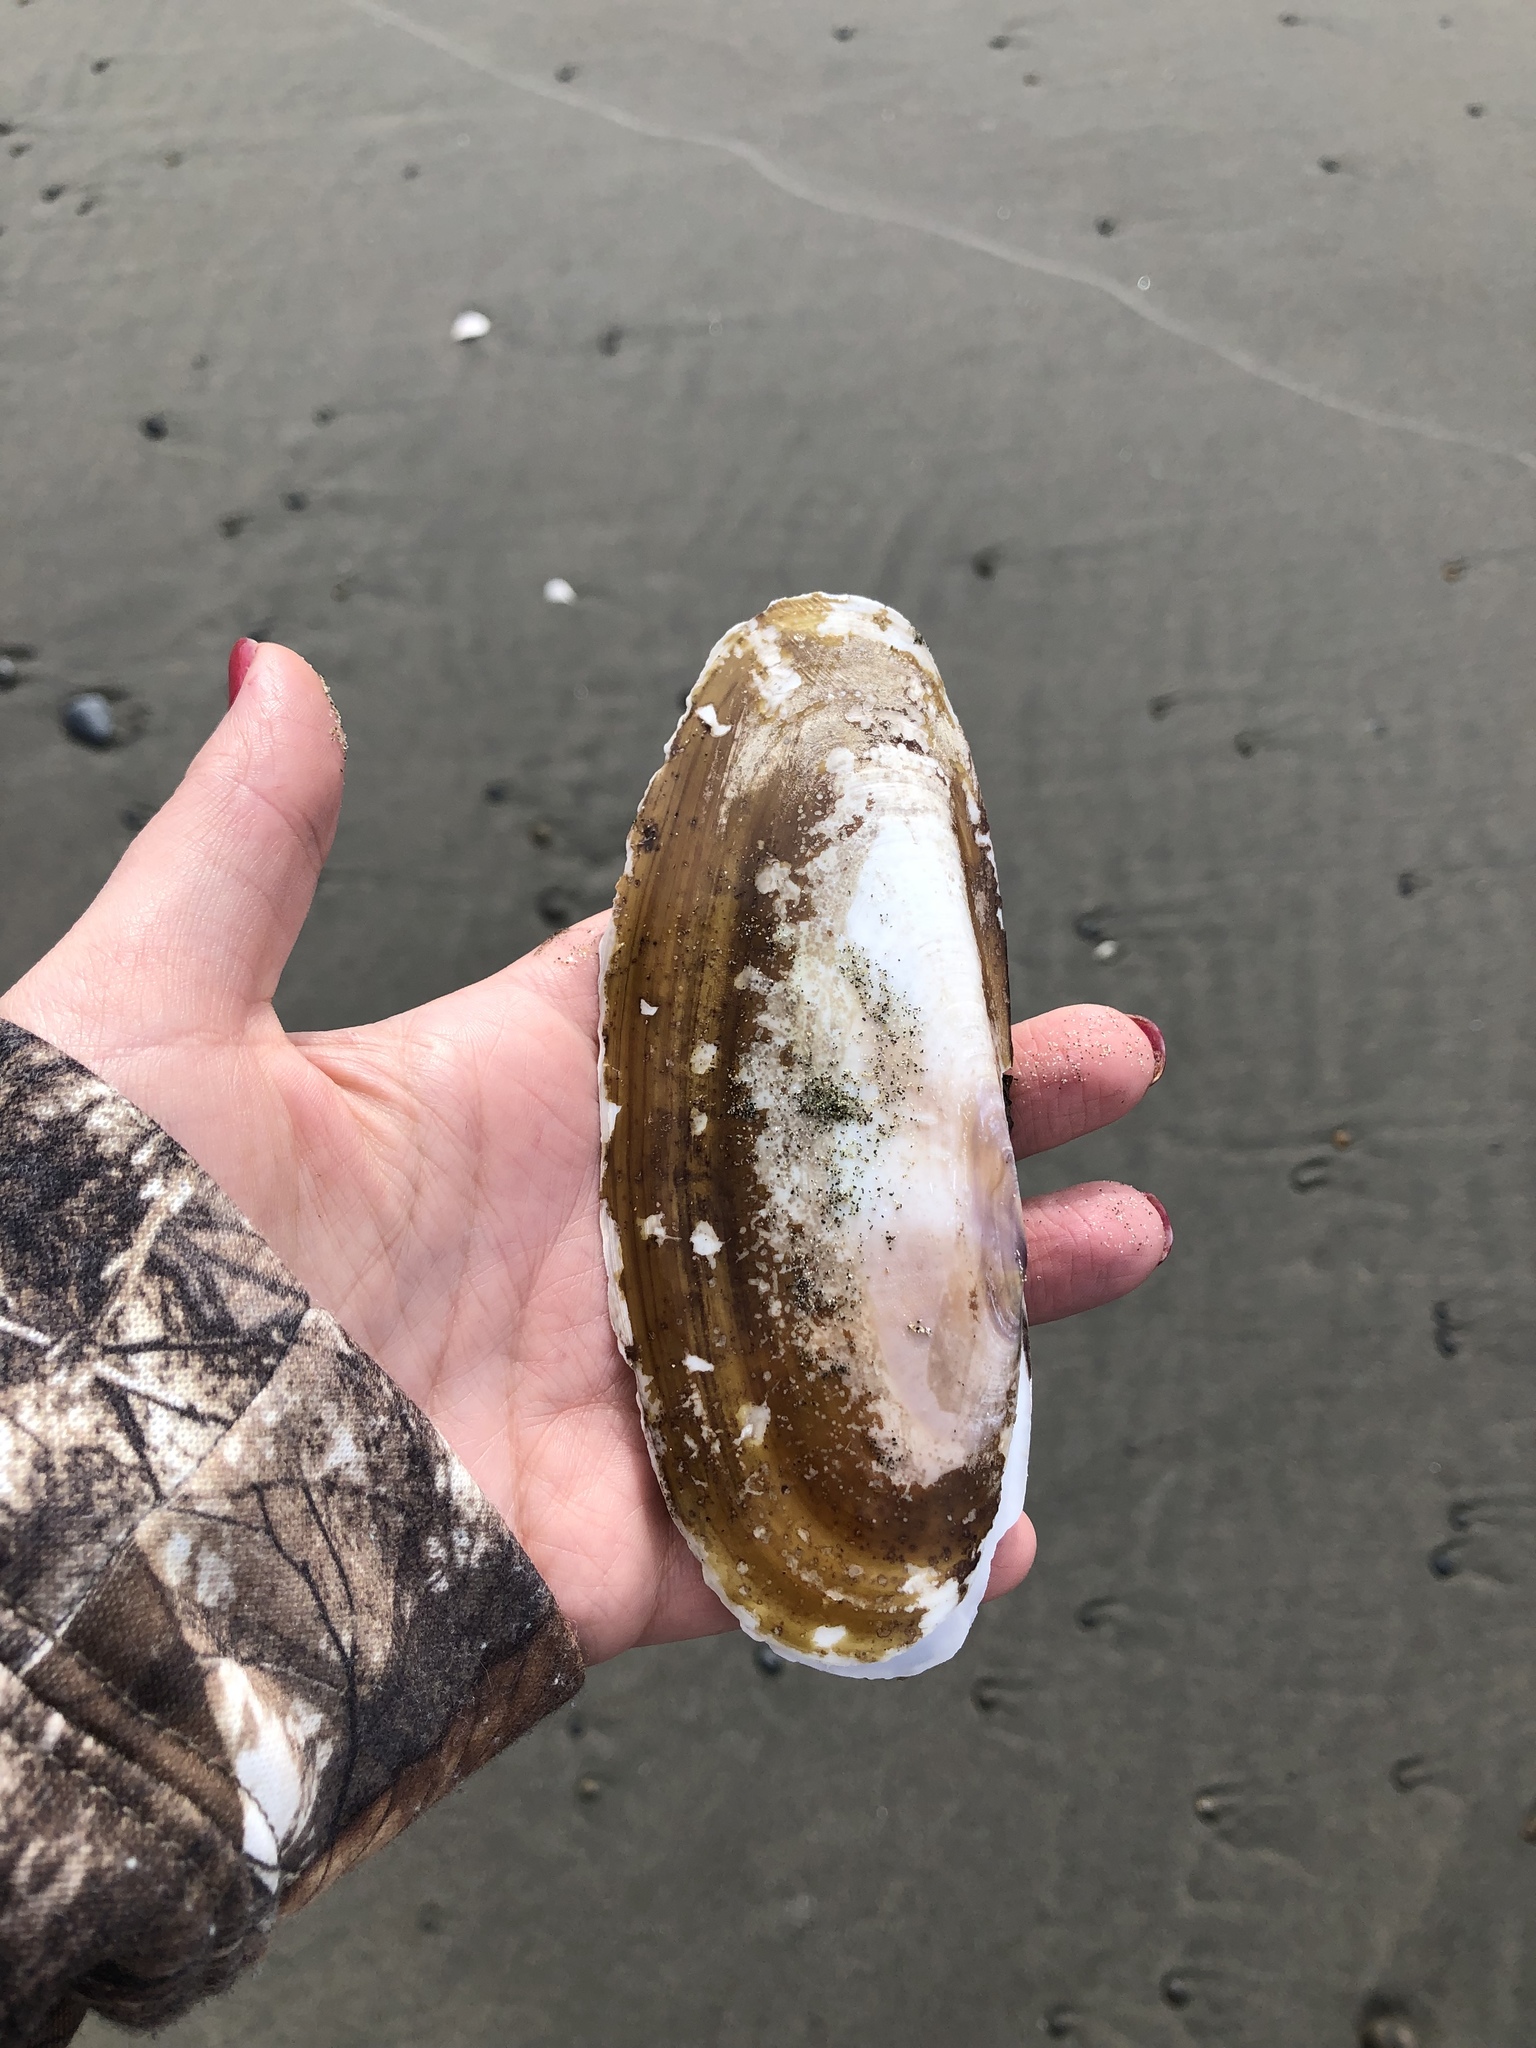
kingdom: Animalia
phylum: Mollusca
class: Bivalvia
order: Adapedonta
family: Pharidae
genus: Siliqua
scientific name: Siliqua patula
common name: Pacific razor clam
